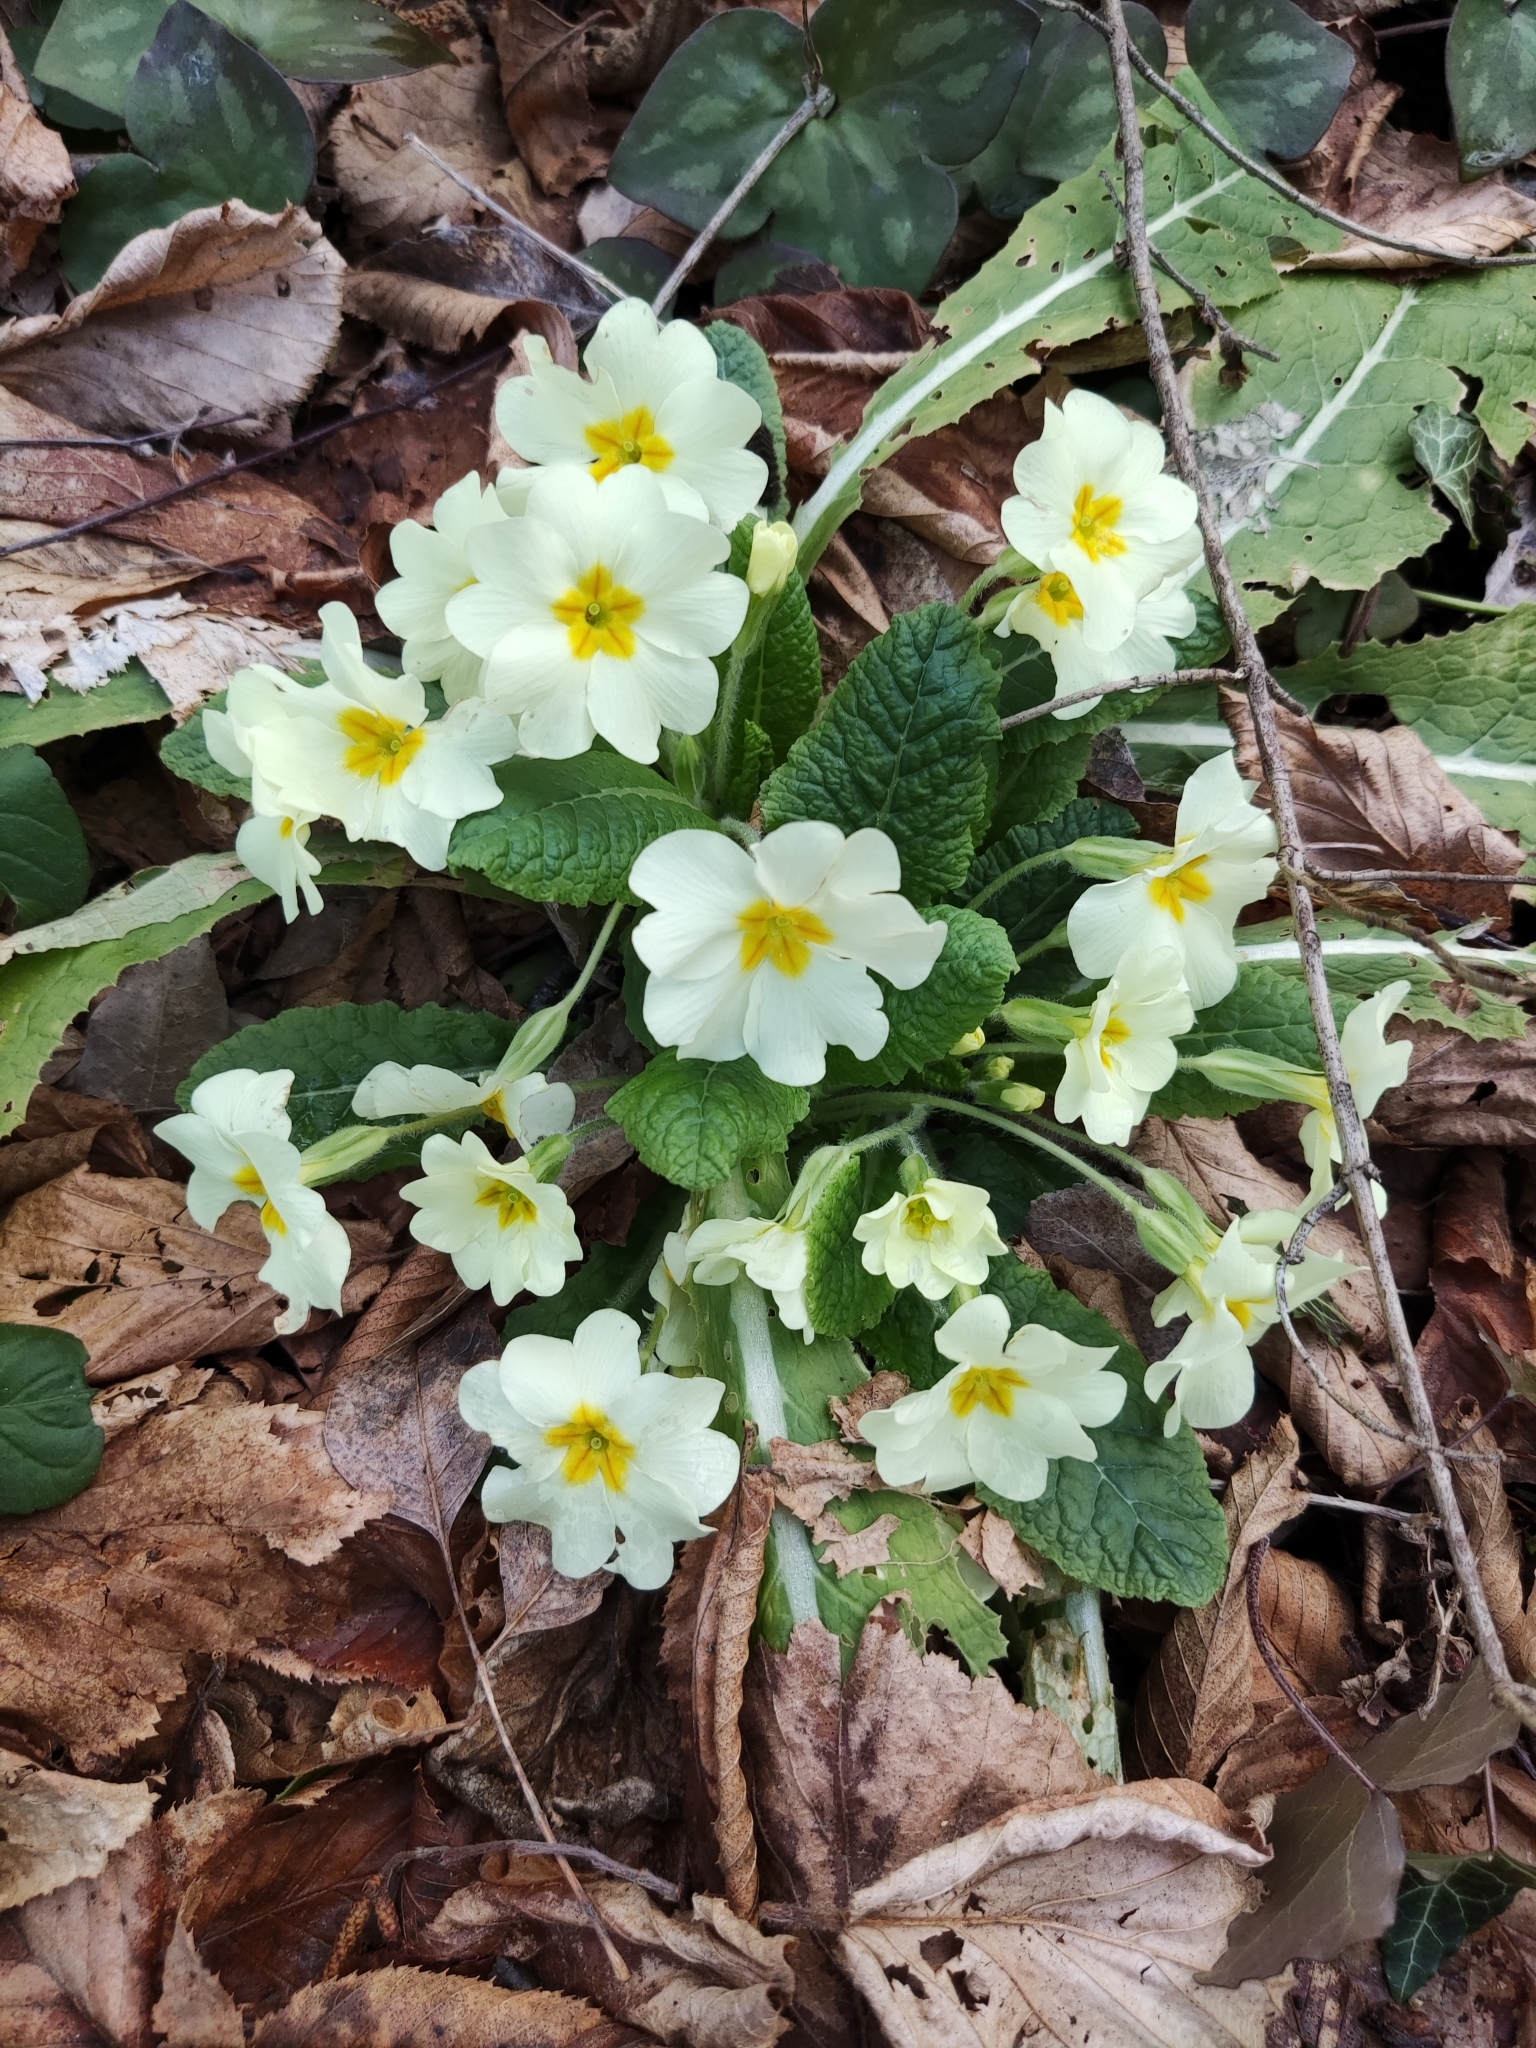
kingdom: Plantae
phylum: Tracheophyta
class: Magnoliopsida
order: Ericales
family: Primulaceae
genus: Primula
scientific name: Primula vulgaris
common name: Primrose
